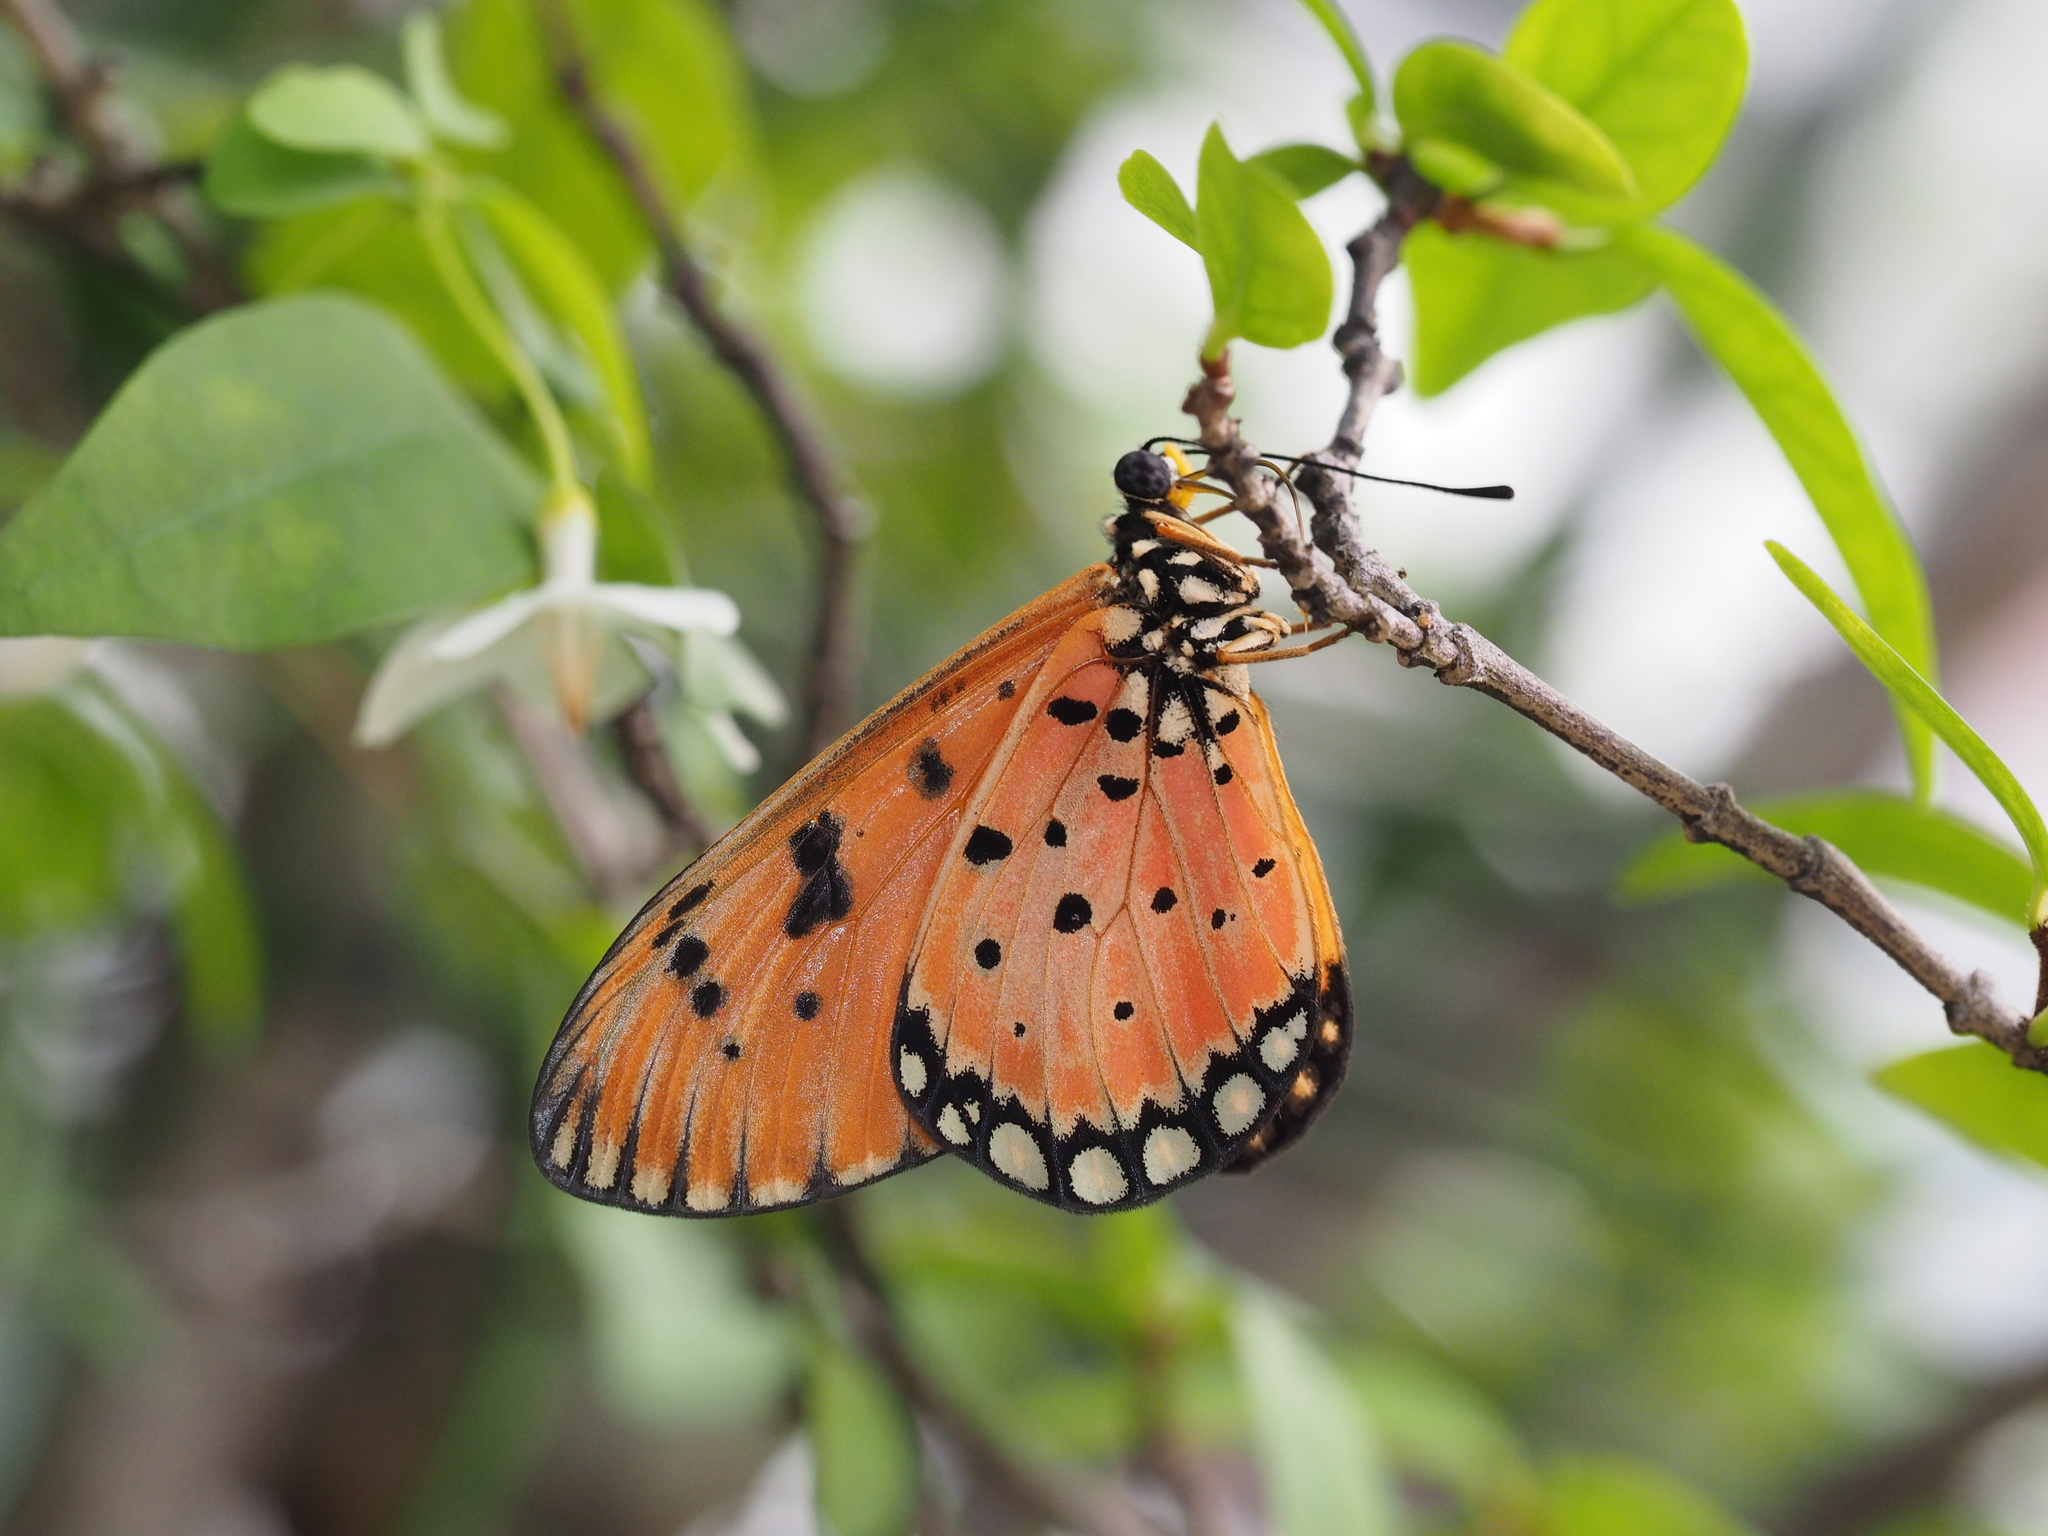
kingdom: Animalia
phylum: Arthropoda
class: Insecta
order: Lepidoptera
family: Nymphalidae
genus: Acraea
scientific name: Acraea terpsicore
